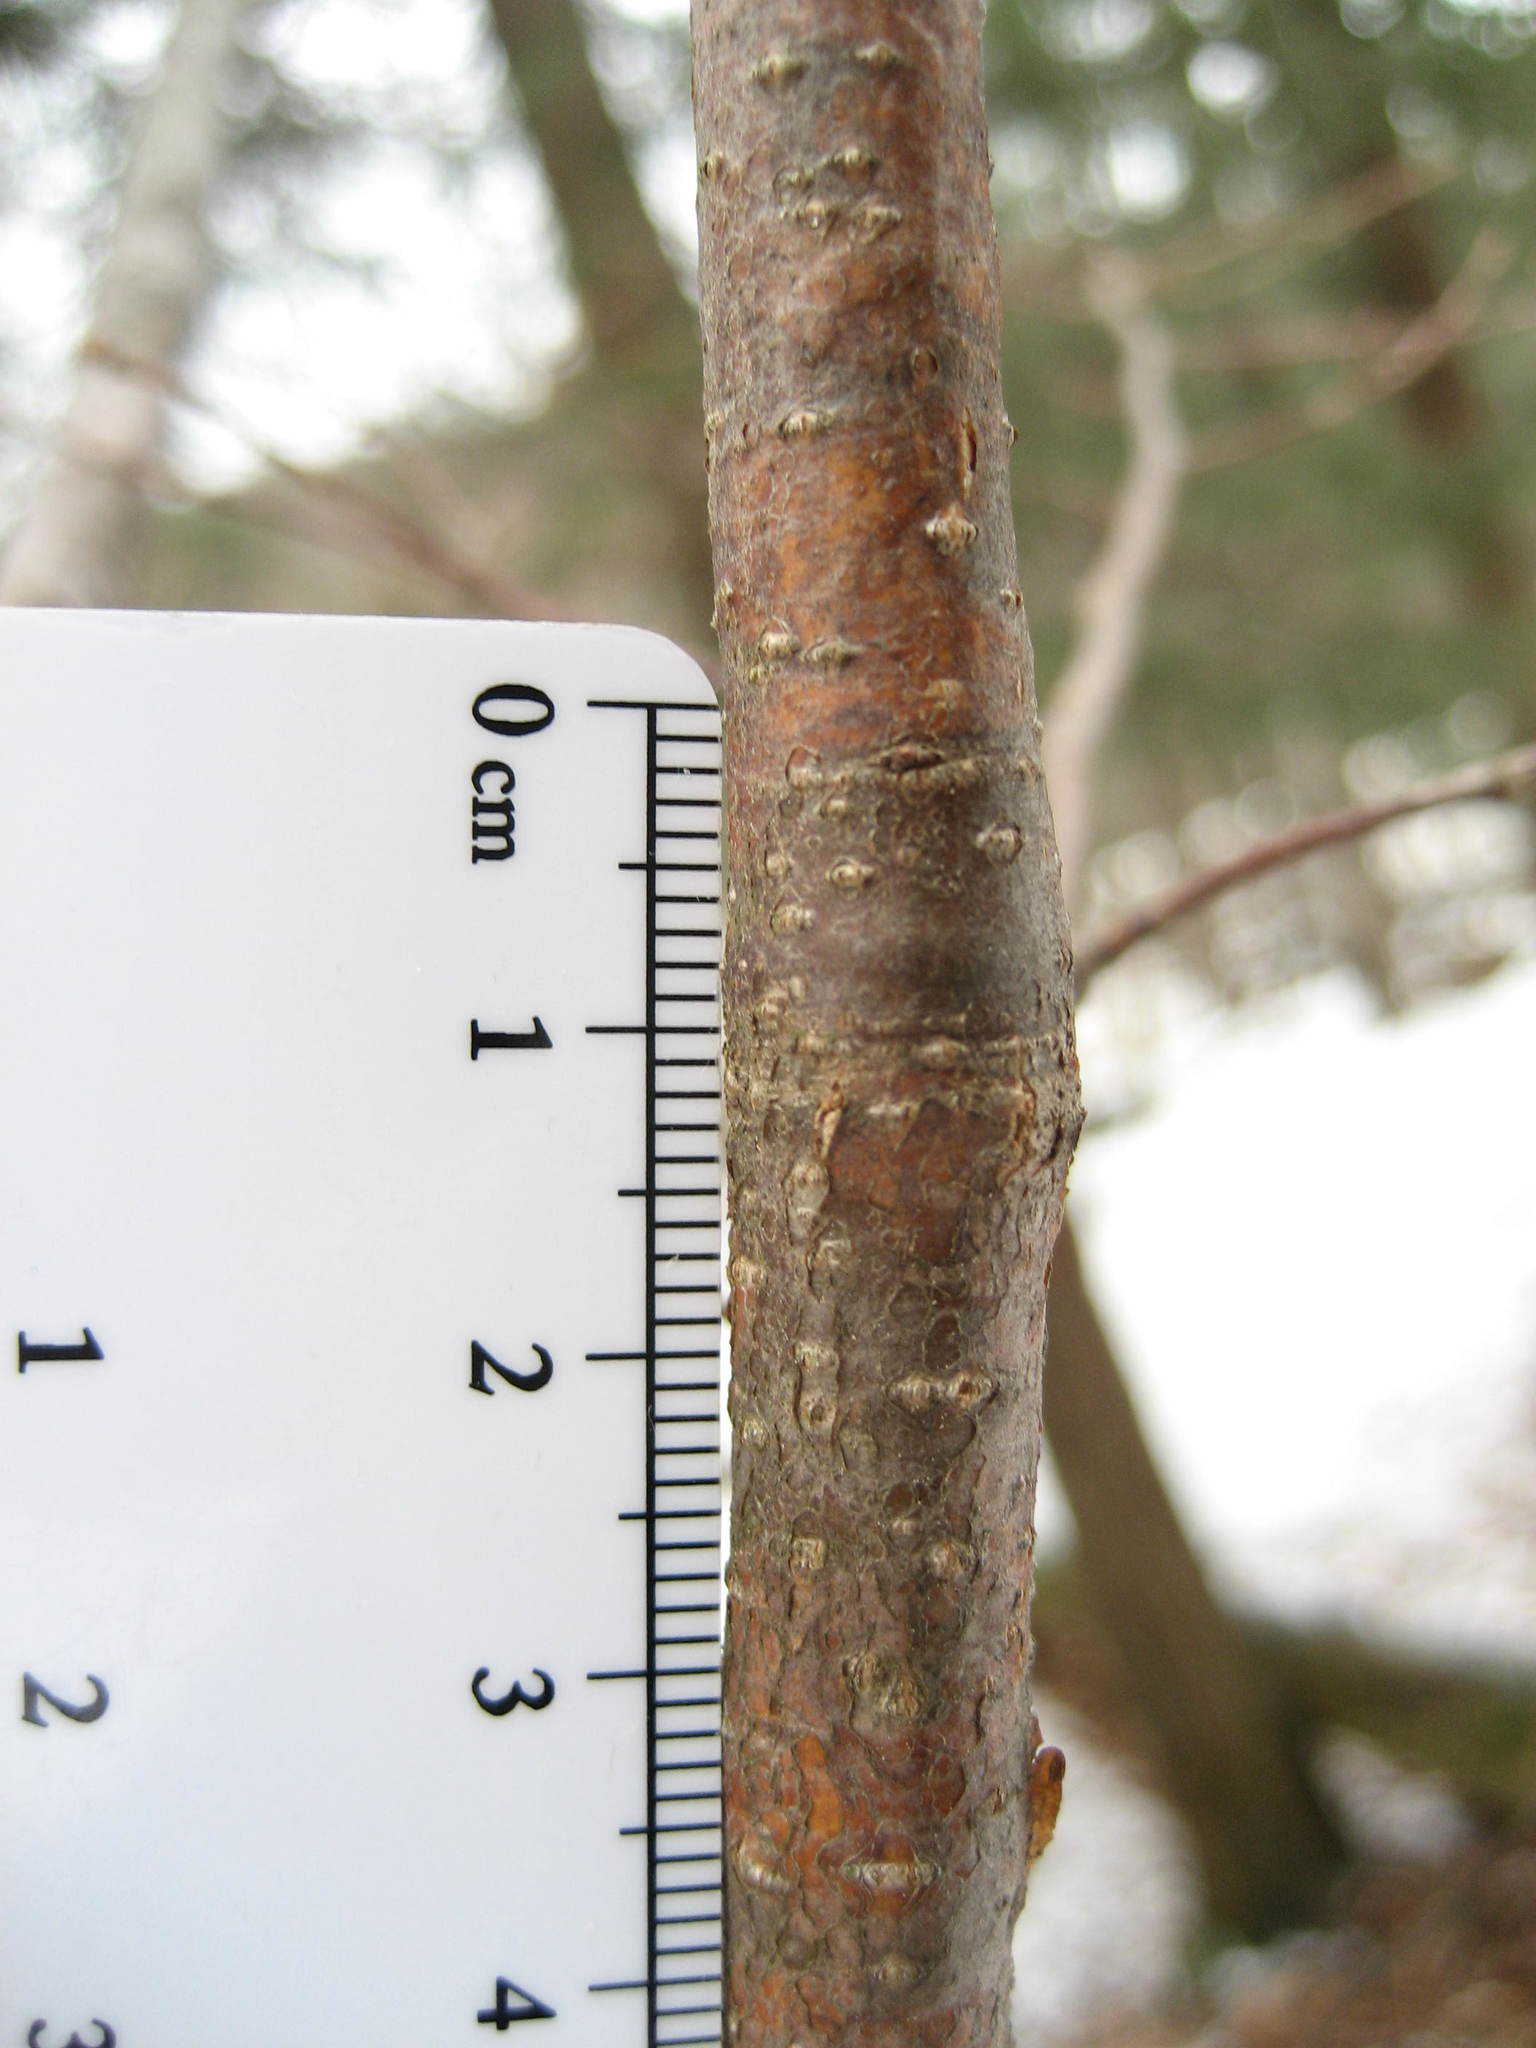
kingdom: Plantae
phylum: Tracheophyta
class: Magnoliopsida
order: Fagales
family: Betulaceae
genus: Ostrya
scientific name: Ostrya virginiana
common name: Ironwood
